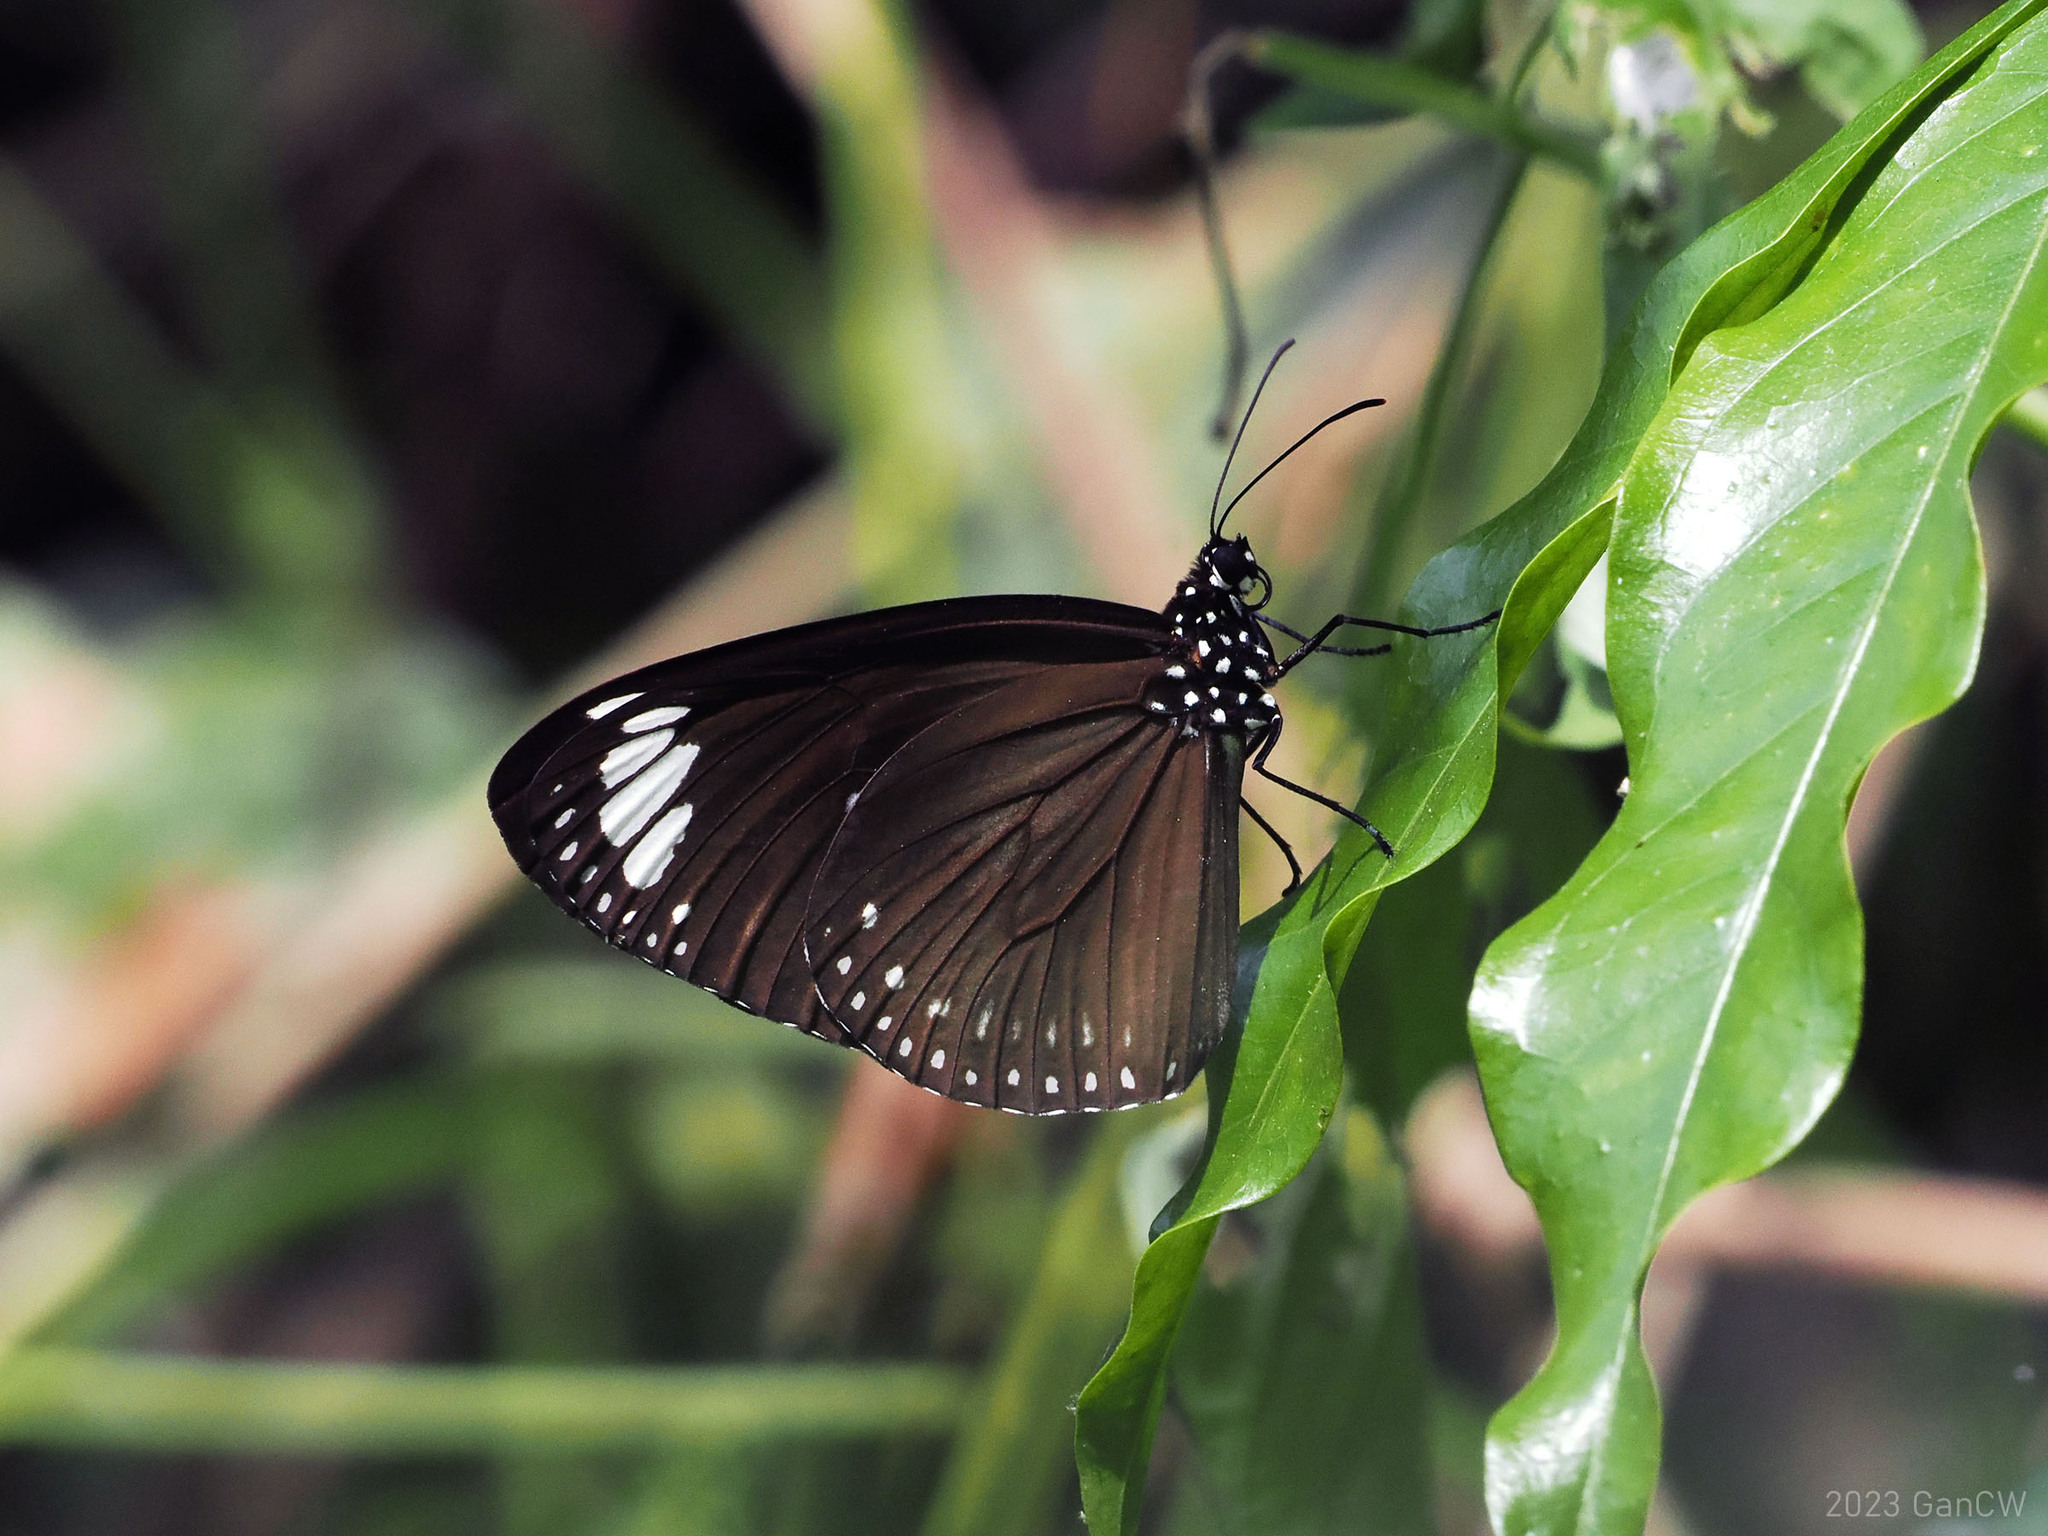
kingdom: Animalia
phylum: Arthropoda
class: Insecta
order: Lepidoptera
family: Nymphalidae
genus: Euploea
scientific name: Euploea tulliolus
